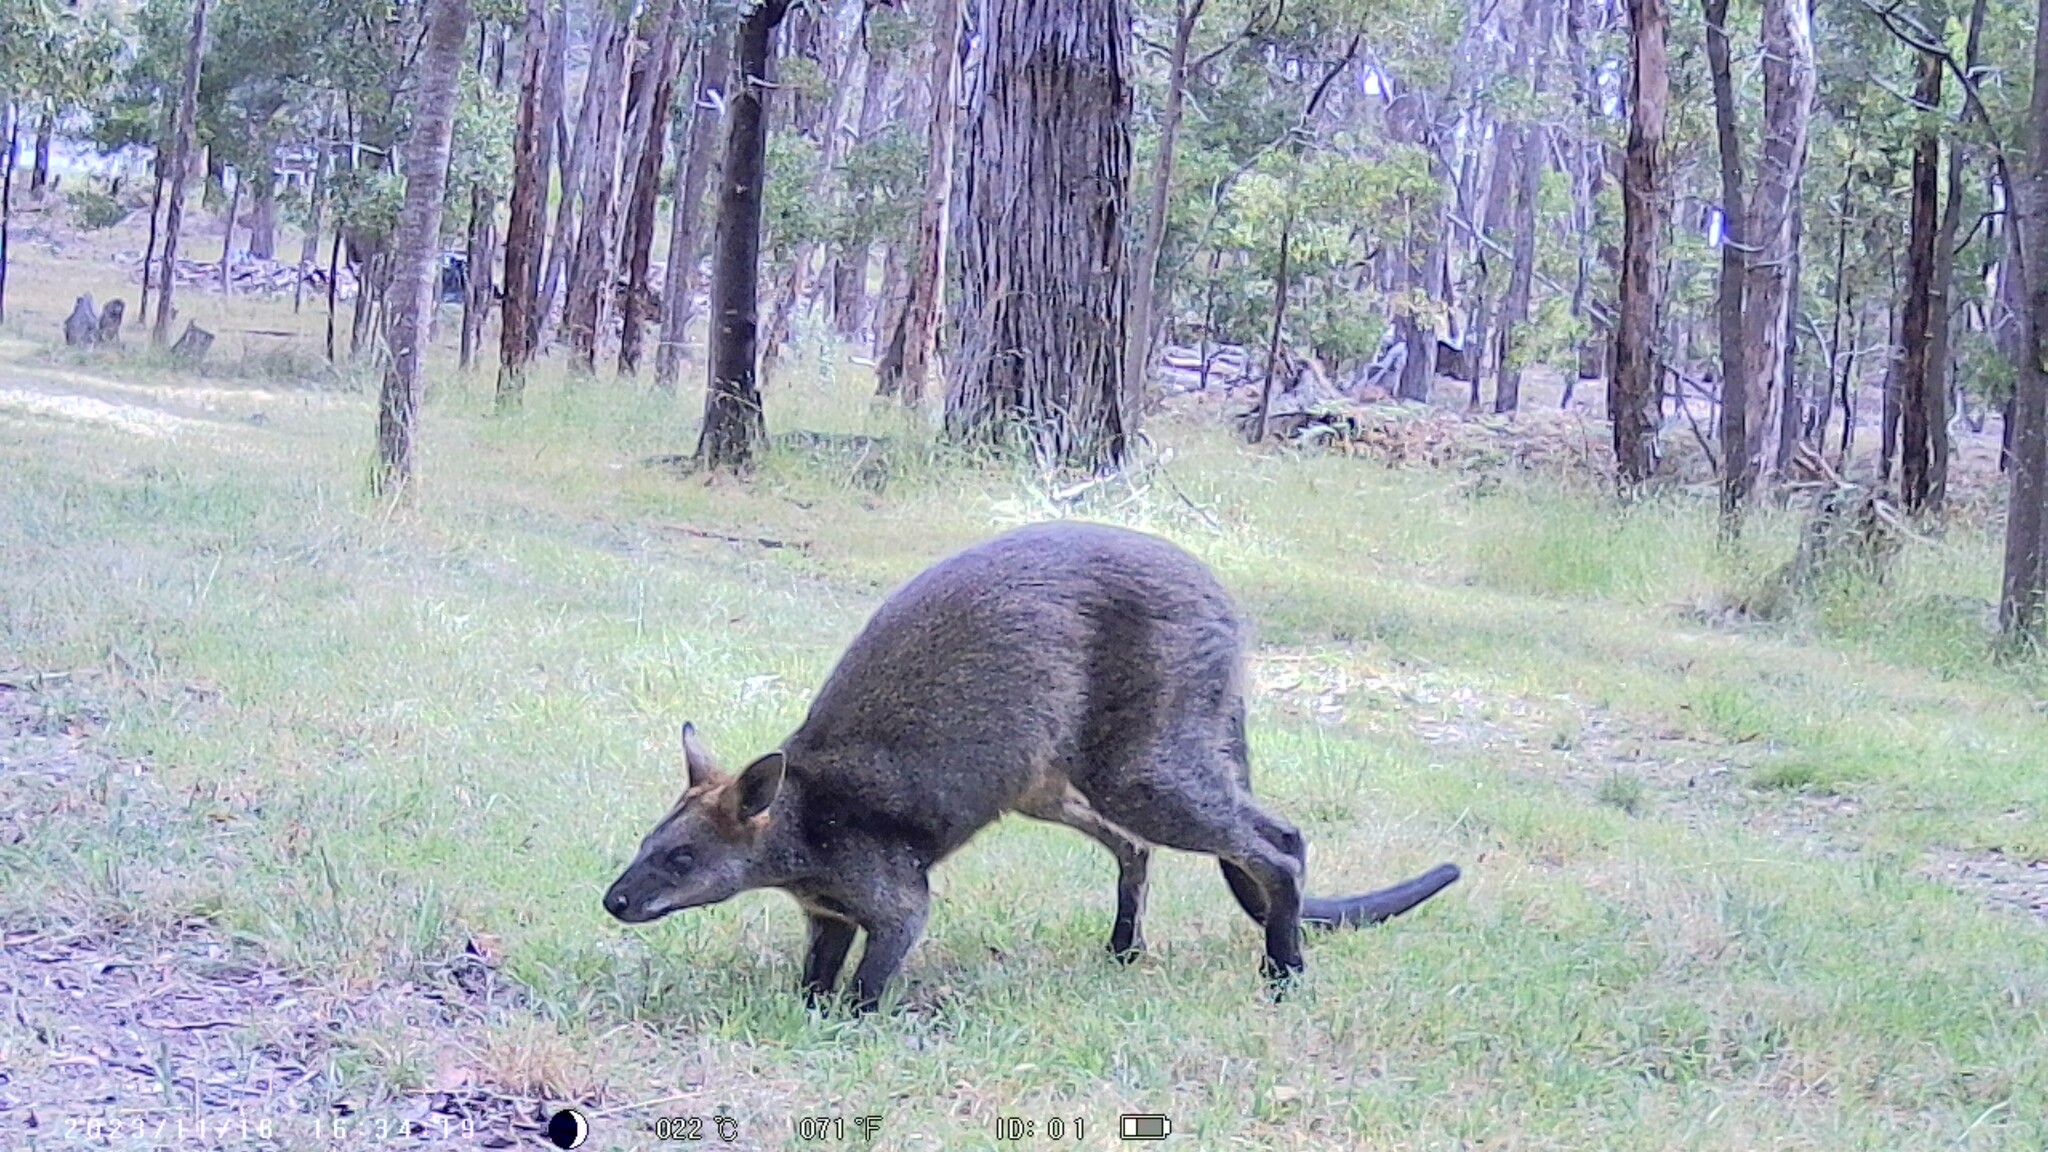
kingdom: Animalia
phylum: Chordata
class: Mammalia
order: Diprotodontia
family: Macropodidae
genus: Wallabia
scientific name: Wallabia bicolor
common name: Swamp wallaby
